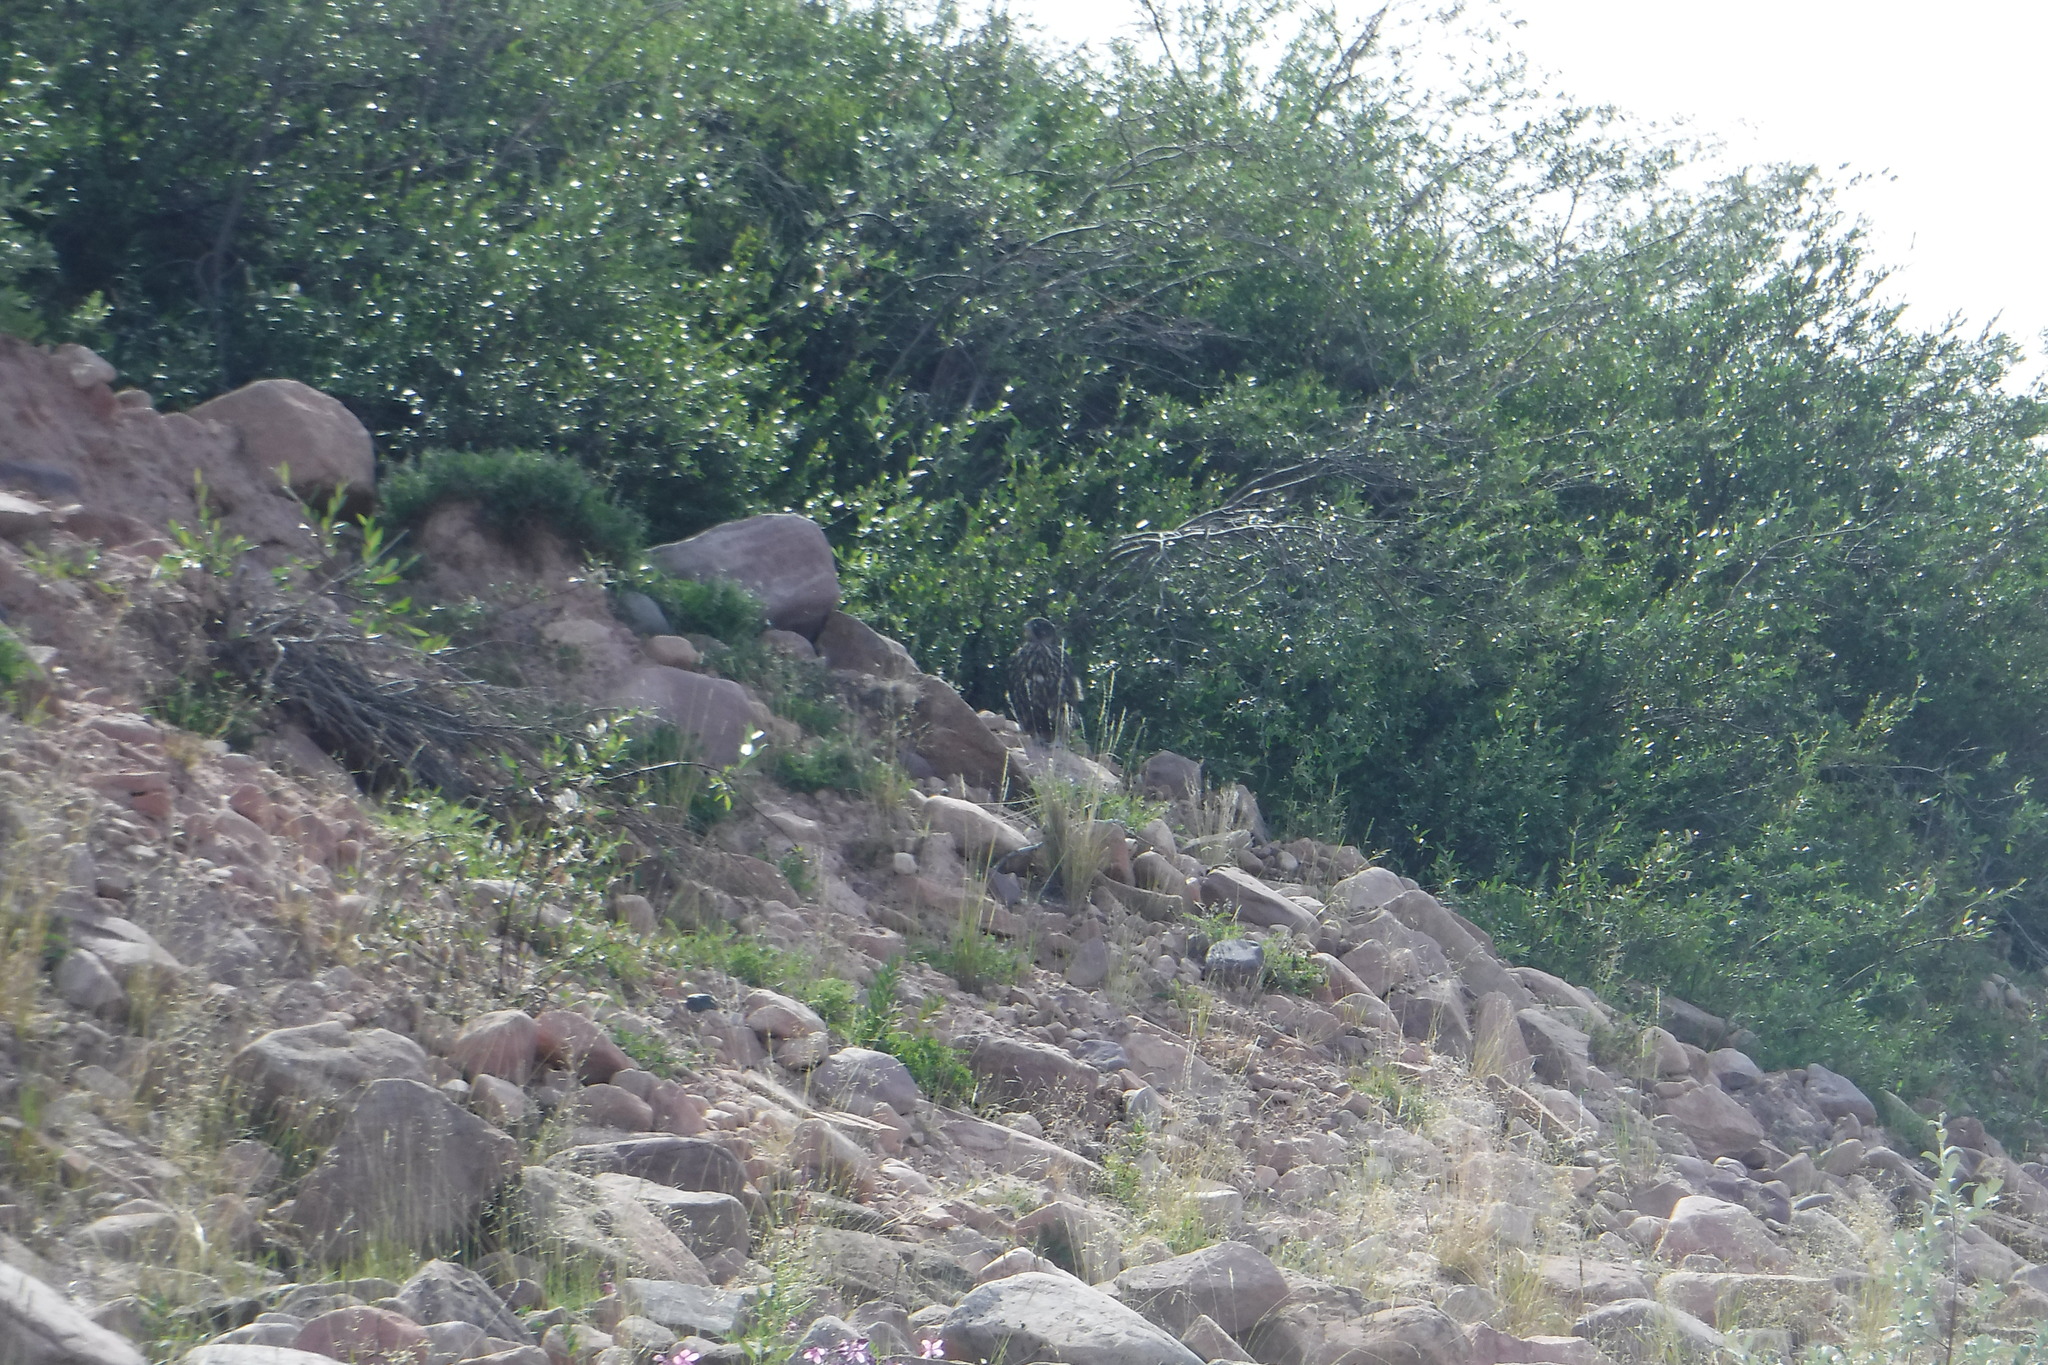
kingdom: Animalia
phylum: Chordata
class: Aves
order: Falconiformes
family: Falconidae
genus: Falco
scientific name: Falco rusticolus
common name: Gyrfalcon
